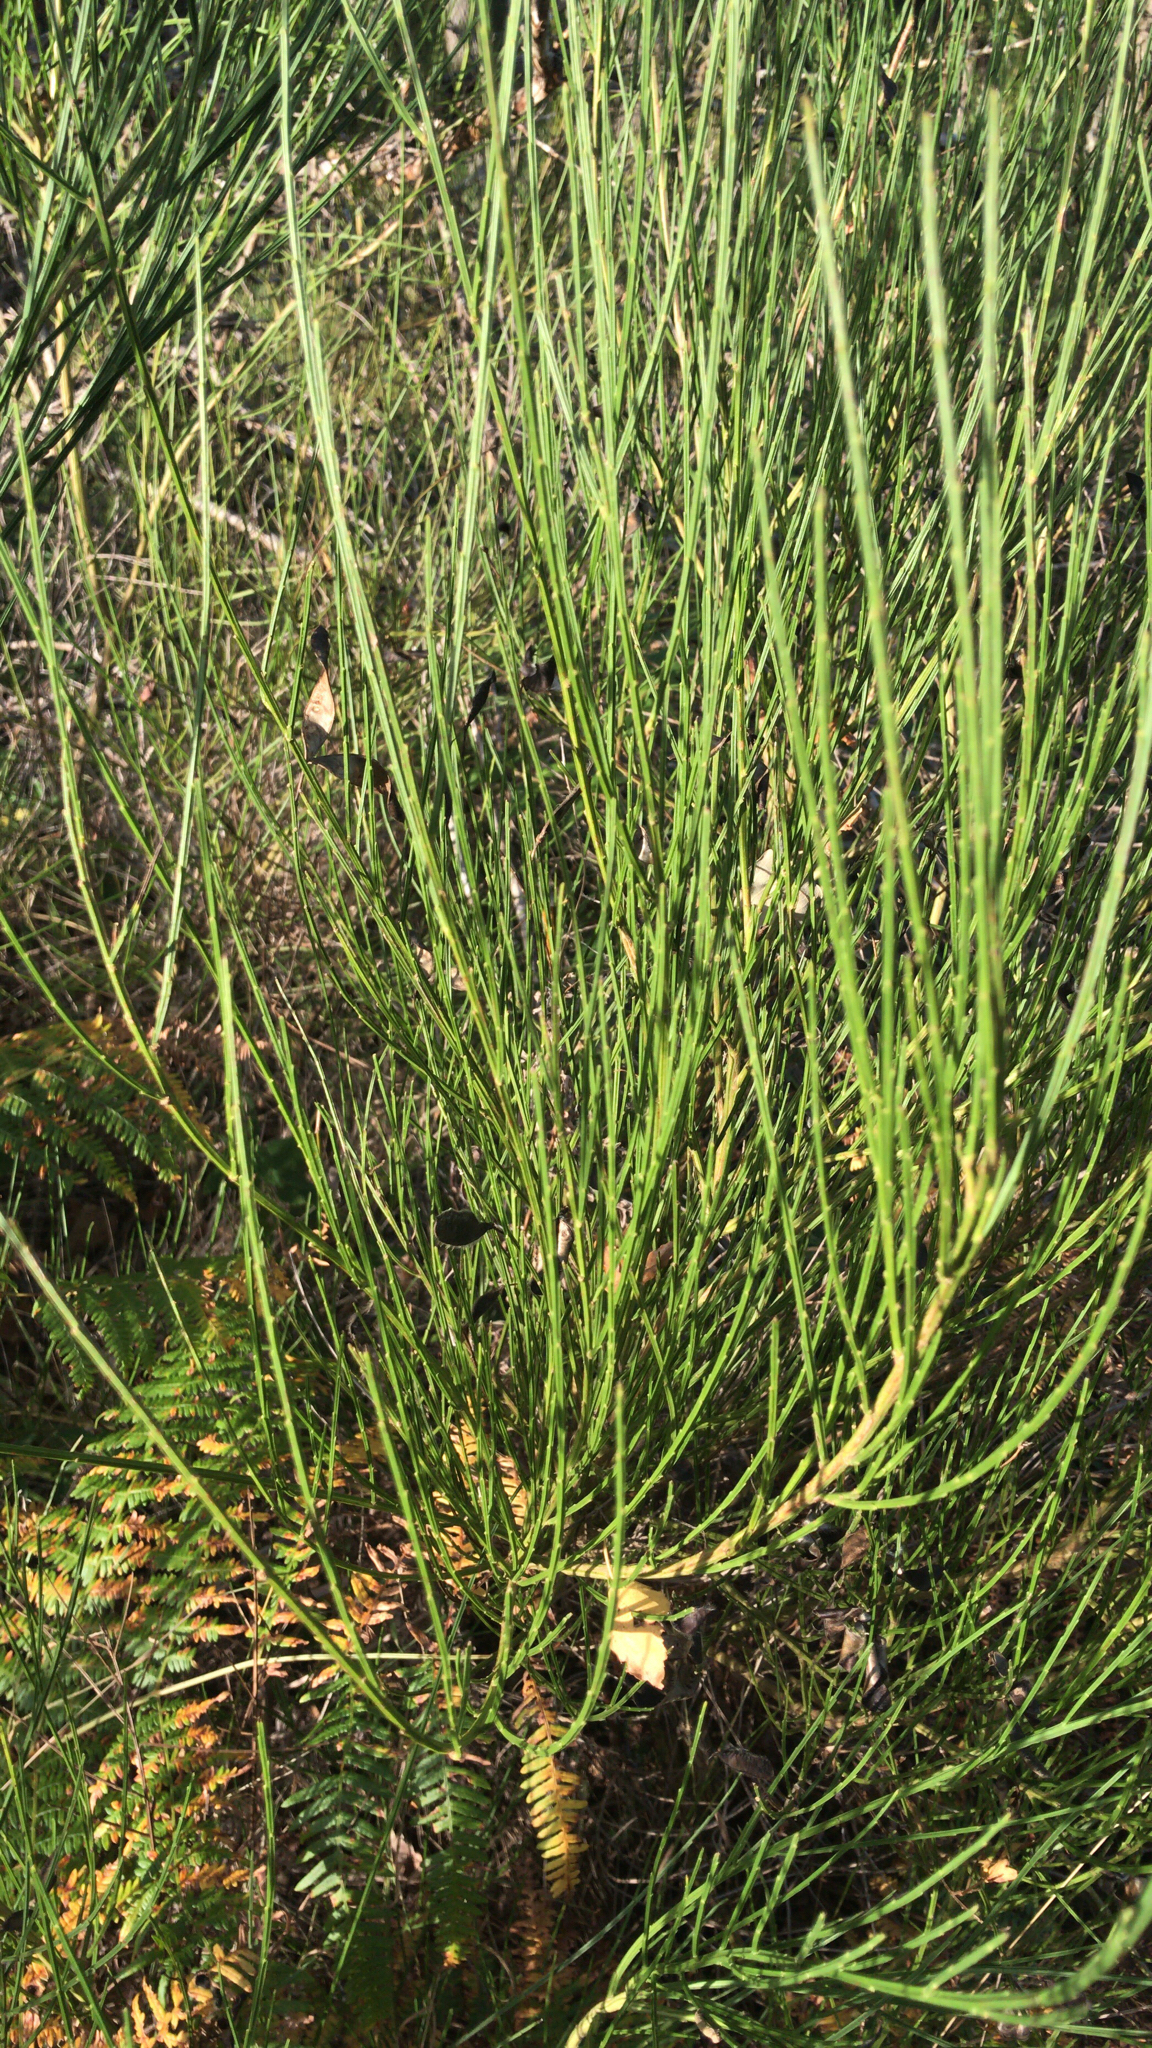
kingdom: Plantae
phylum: Tracheophyta
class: Magnoliopsida
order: Fabales
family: Fabaceae
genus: Cytisus
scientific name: Cytisus scoparius
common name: Scotch broom
